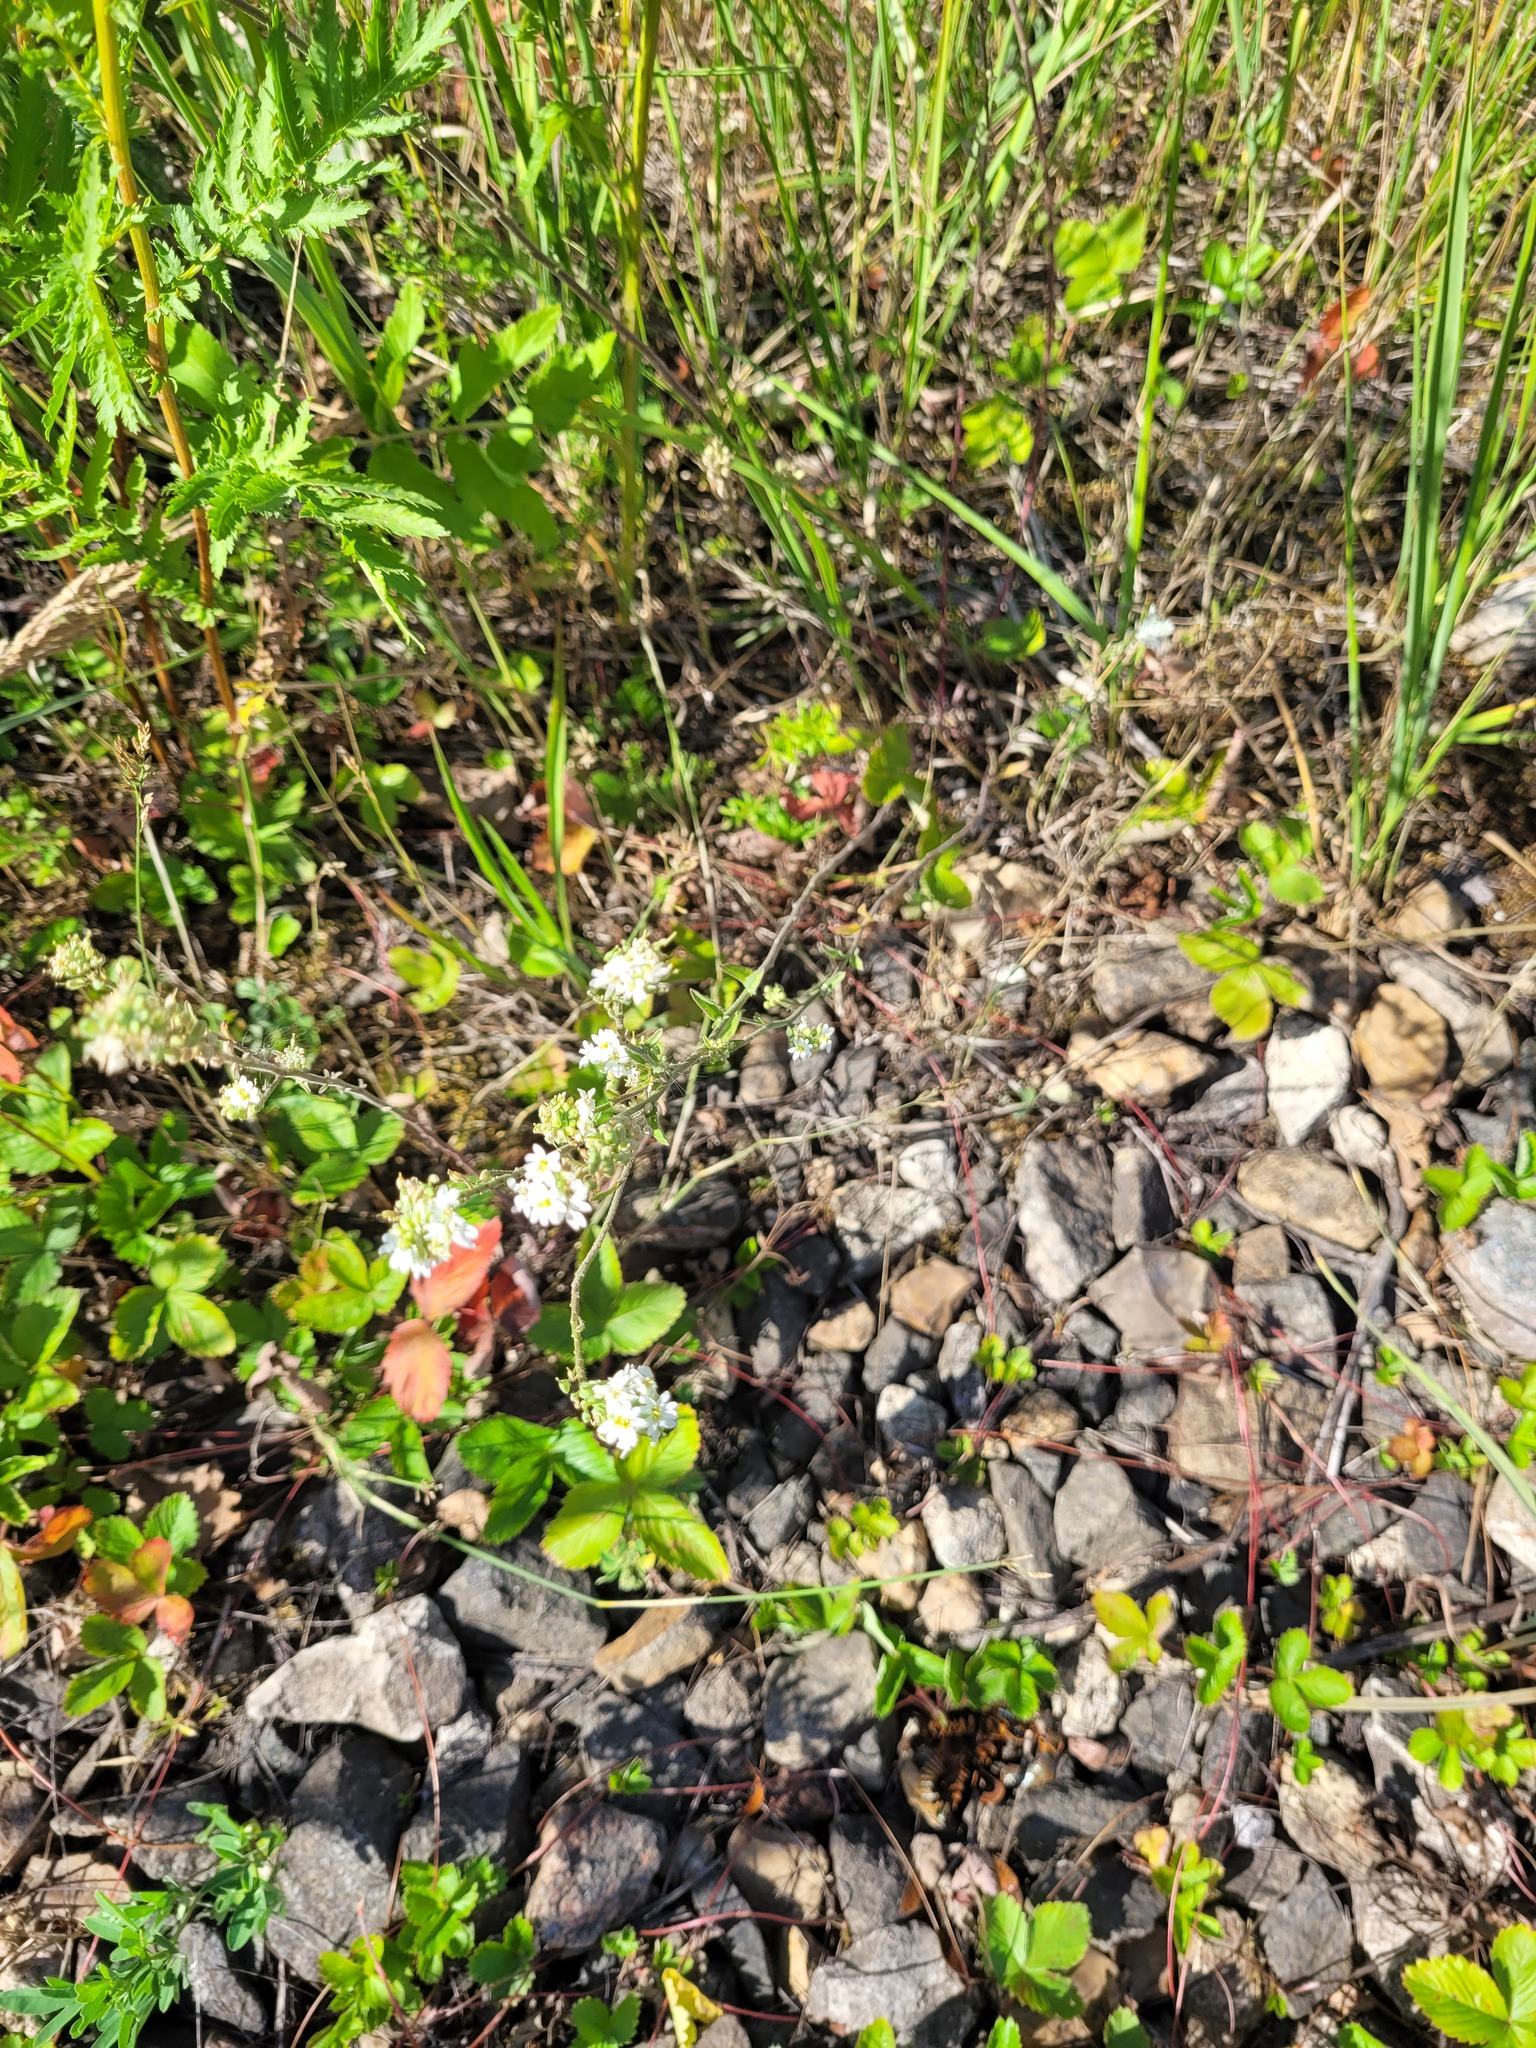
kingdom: Plantae
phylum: Tracheophyta
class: Magnoliopsida
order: Brassicales
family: Brassicaceae
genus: Berteroa
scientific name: Berteroa incana
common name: Hoary alison
